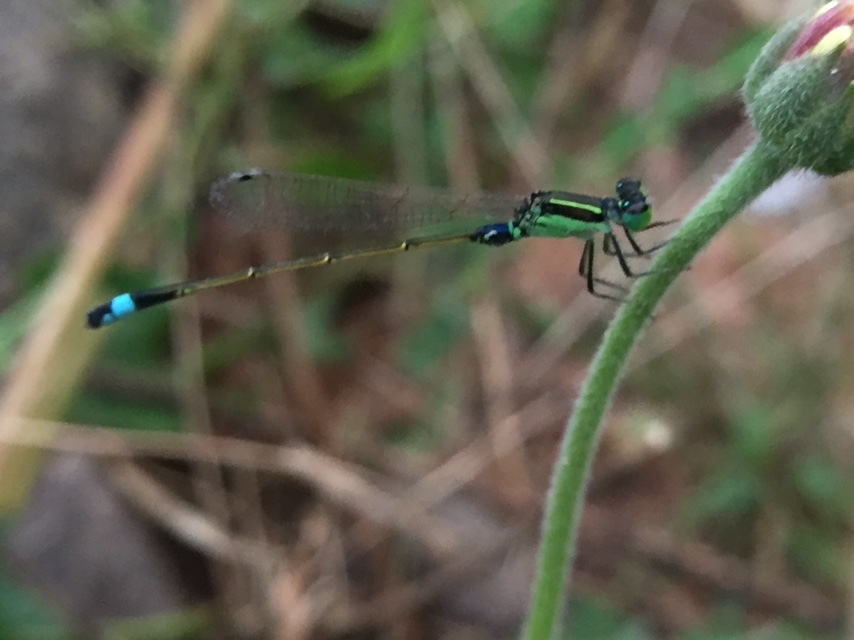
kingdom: Animalia
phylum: Arthropoda
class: Insecta
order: Odonata
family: Coenagrionidae
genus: Ischnura
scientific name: Ischnura senegalensis
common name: Tropical bluetail
